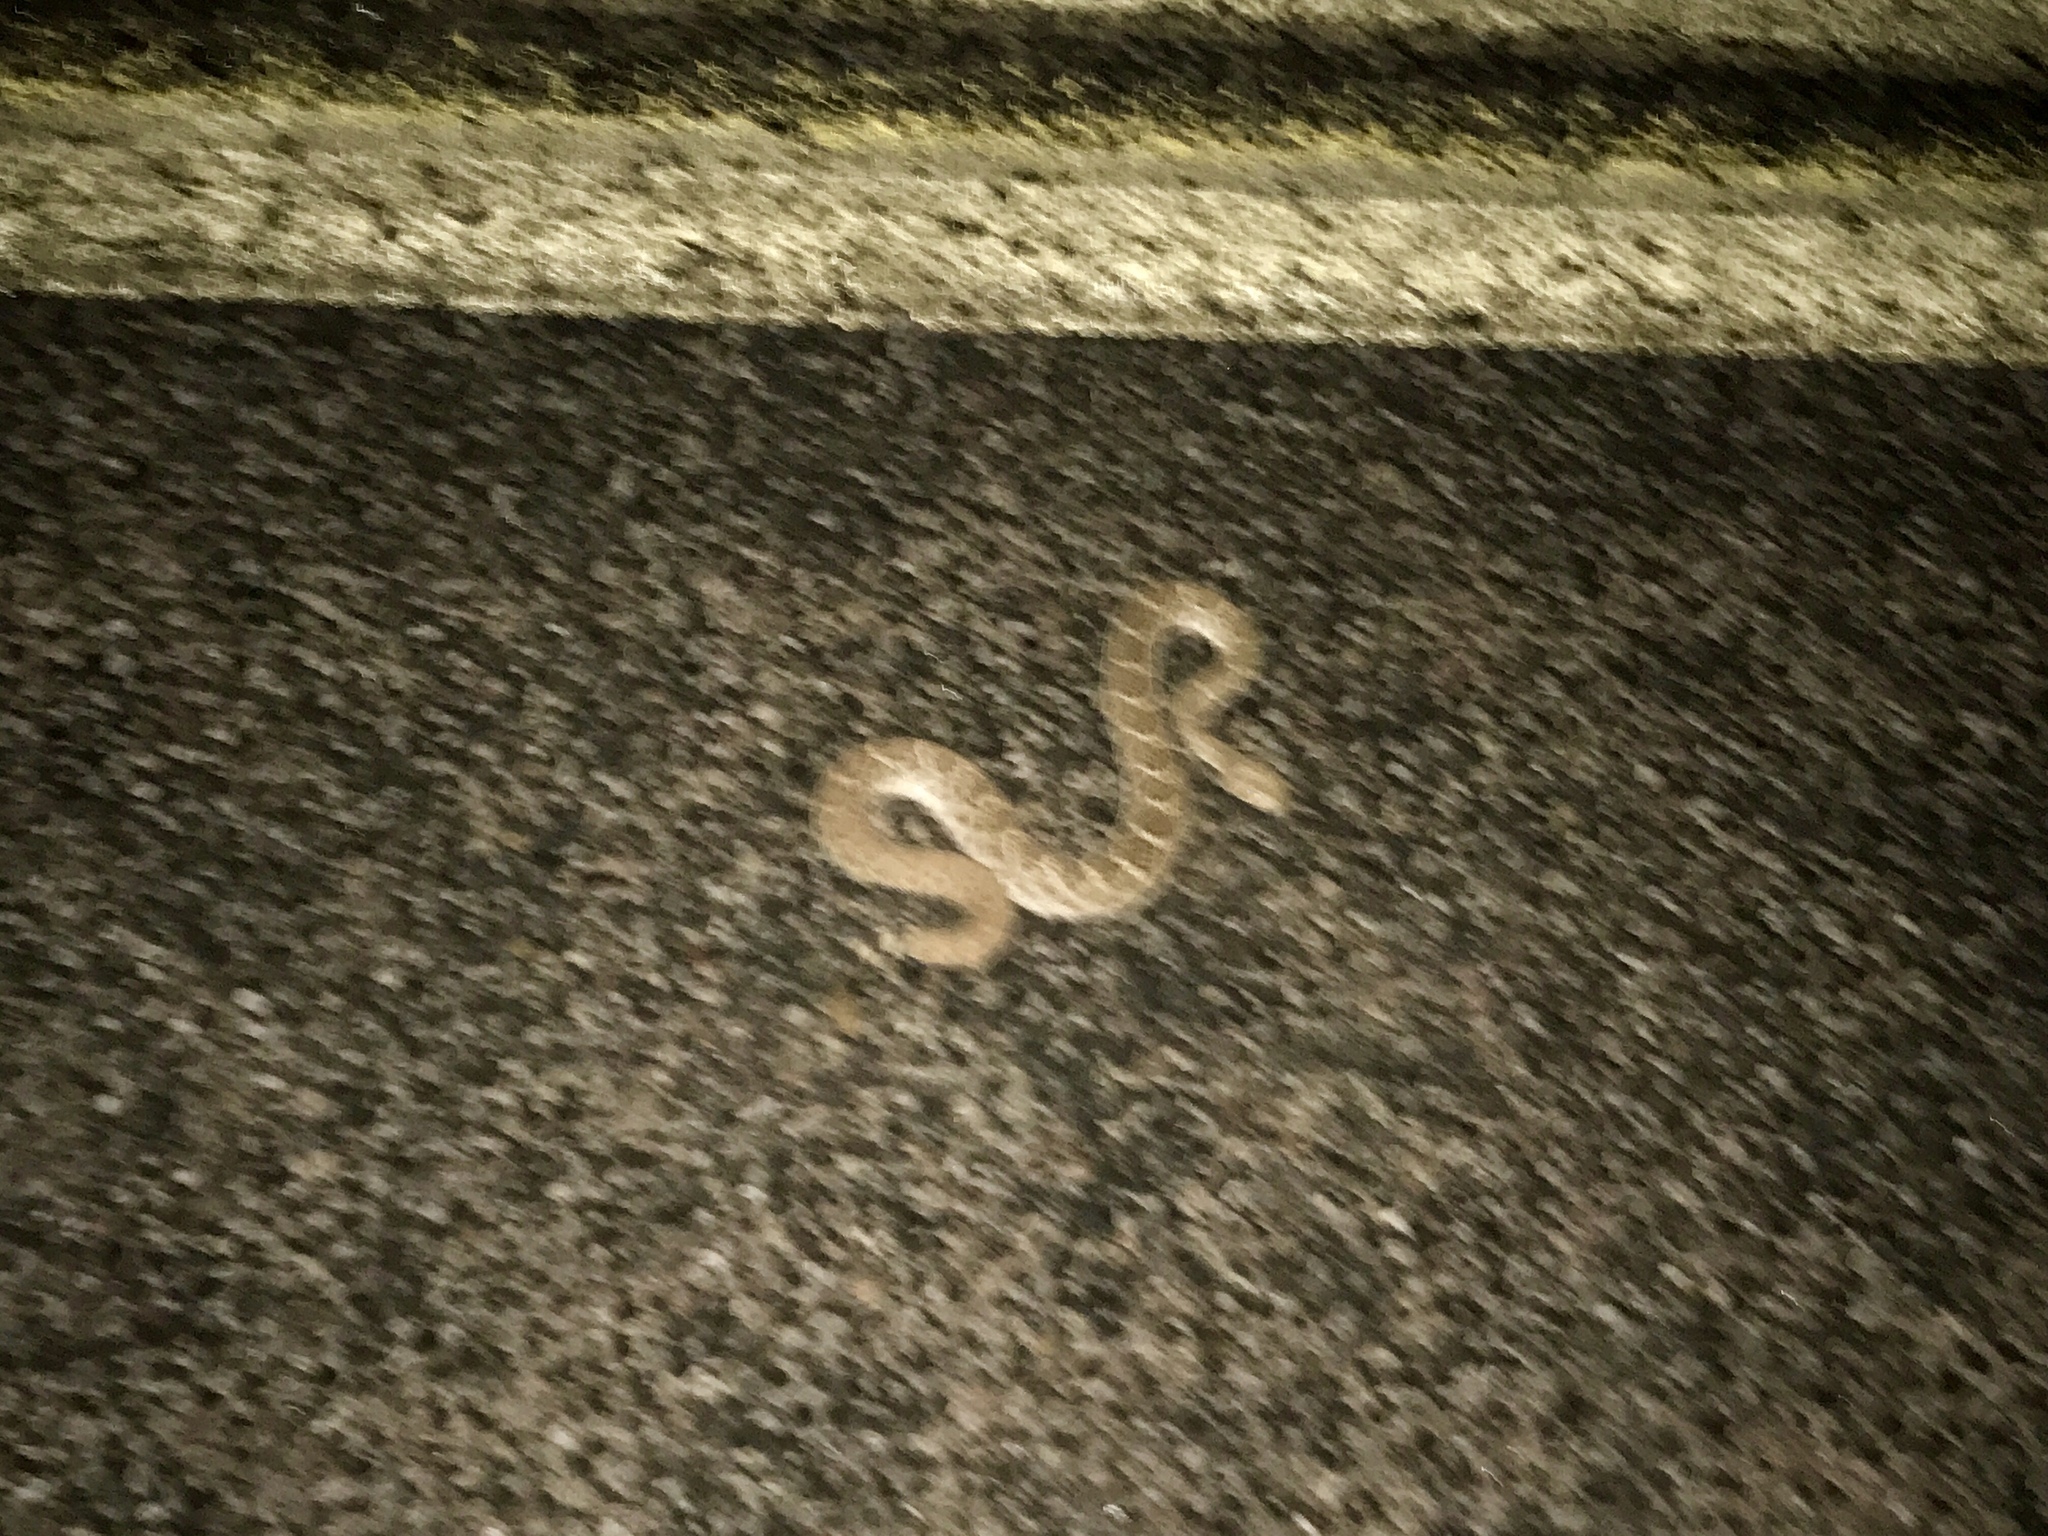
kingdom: Animalia
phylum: Chordata
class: Squamata
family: Viperidae
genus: Crotalus
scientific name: Crotalus atrox
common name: Western diamond-backed rattlesnake
